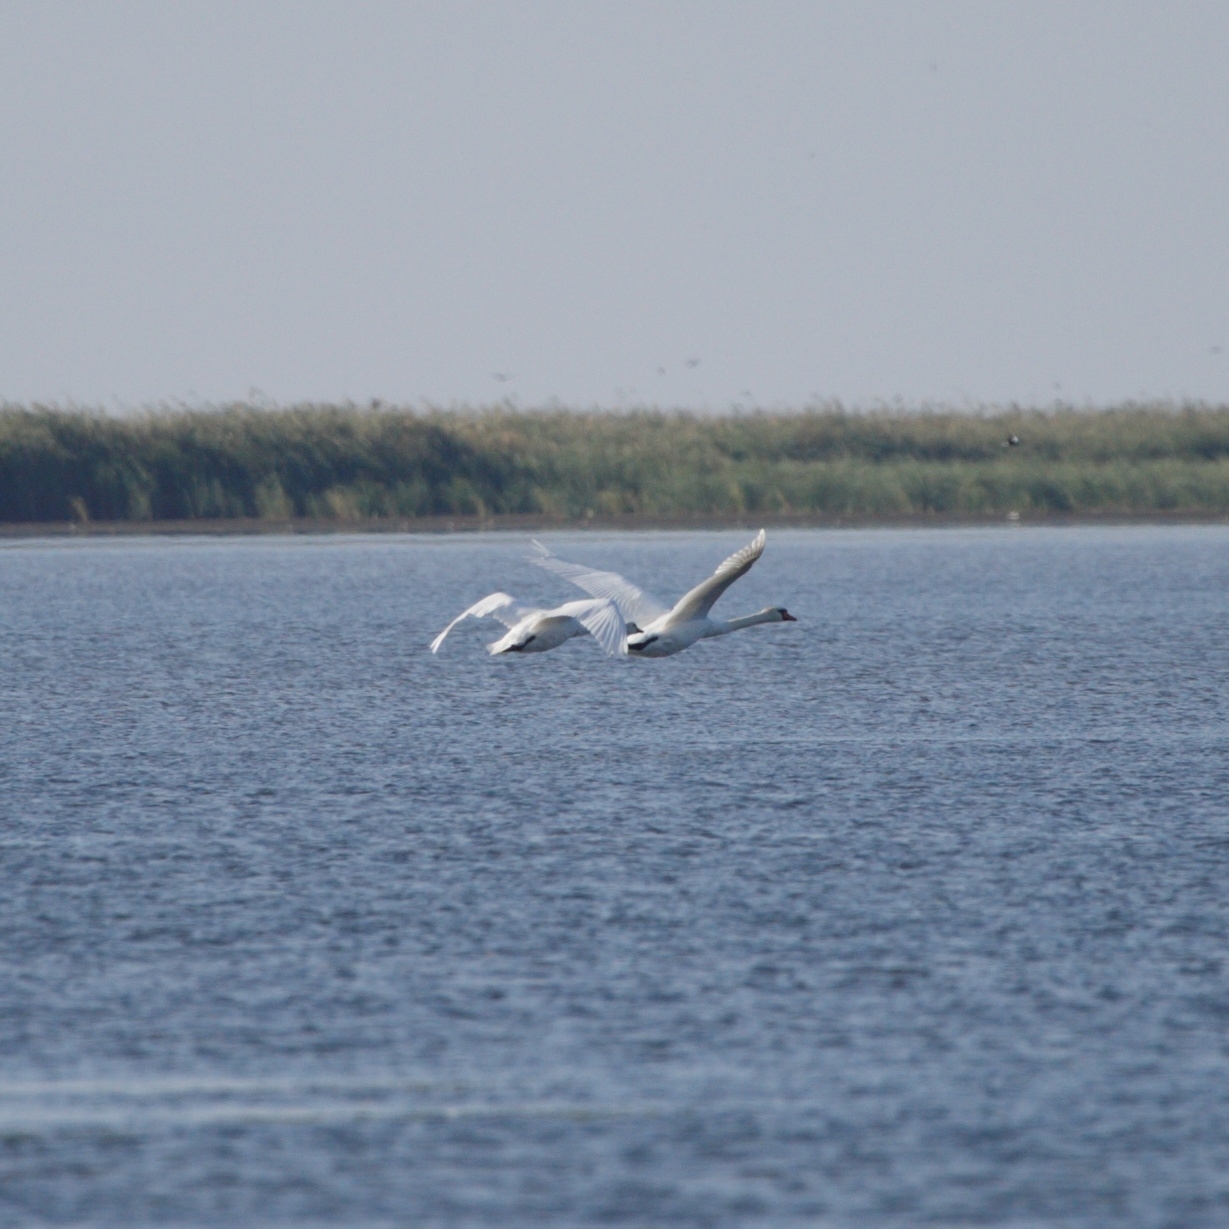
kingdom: Animalia
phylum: Chordata
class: Aves
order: Anseriformes
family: Anatidae
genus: Cygnus
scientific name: Cygnus olor
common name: Mute swan
